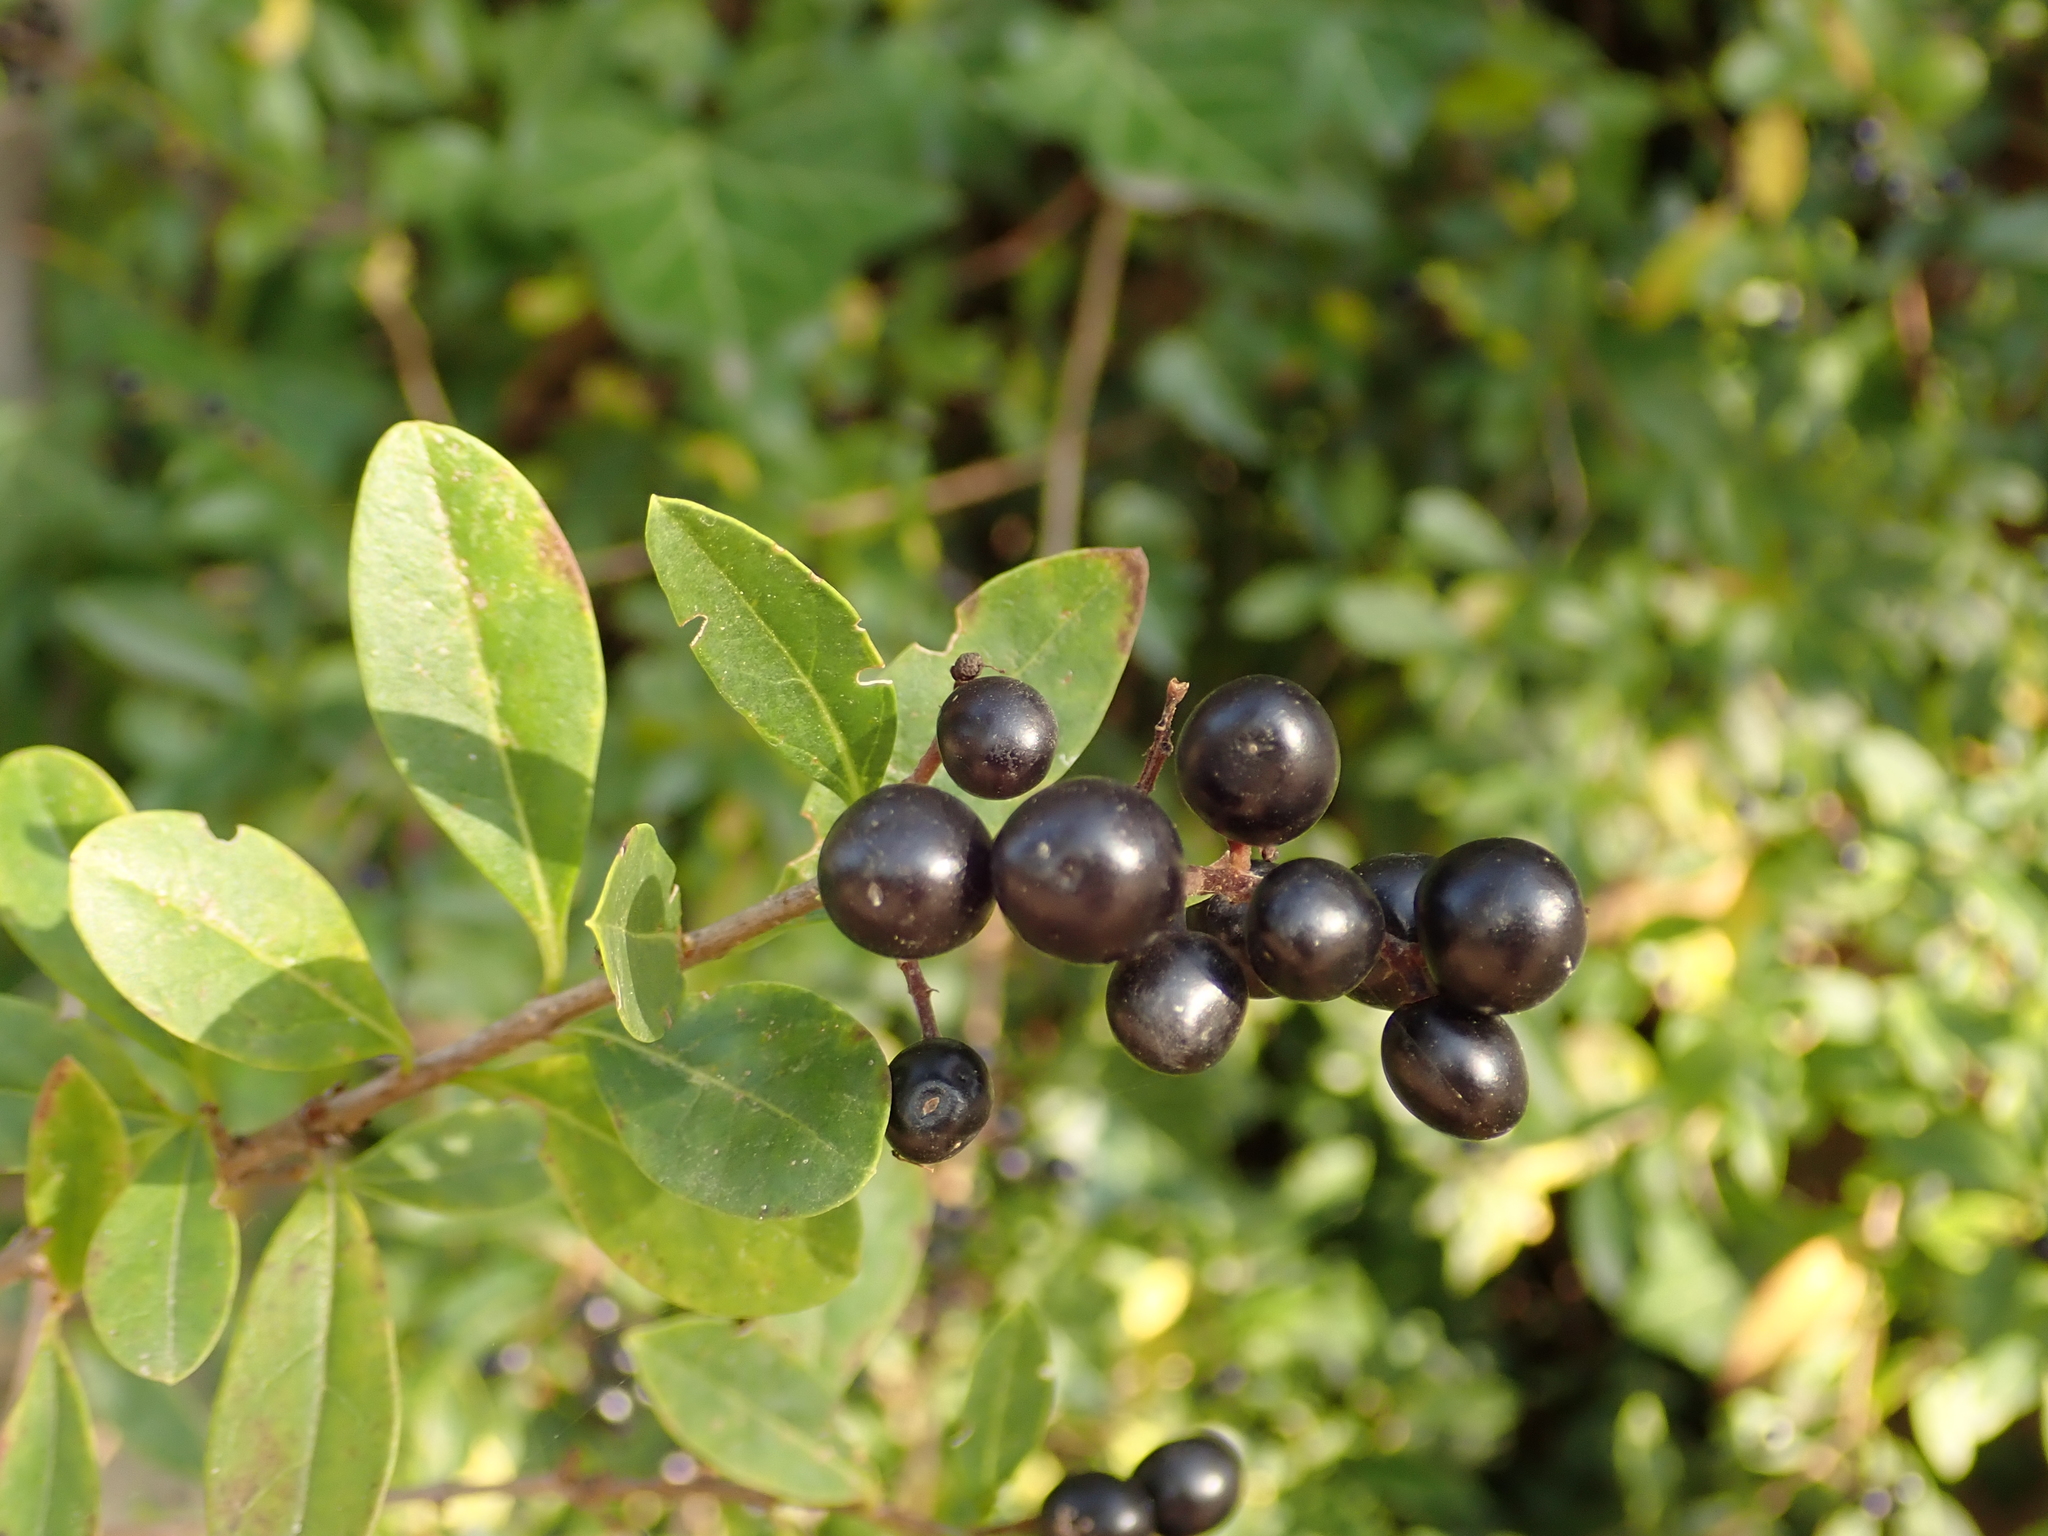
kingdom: Plantae
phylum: Tracheophyta
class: Magnoliopsida
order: Lamiales
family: Oleaceae
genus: Ligustrum
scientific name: Ligustrum vulgare
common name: Wild privet
